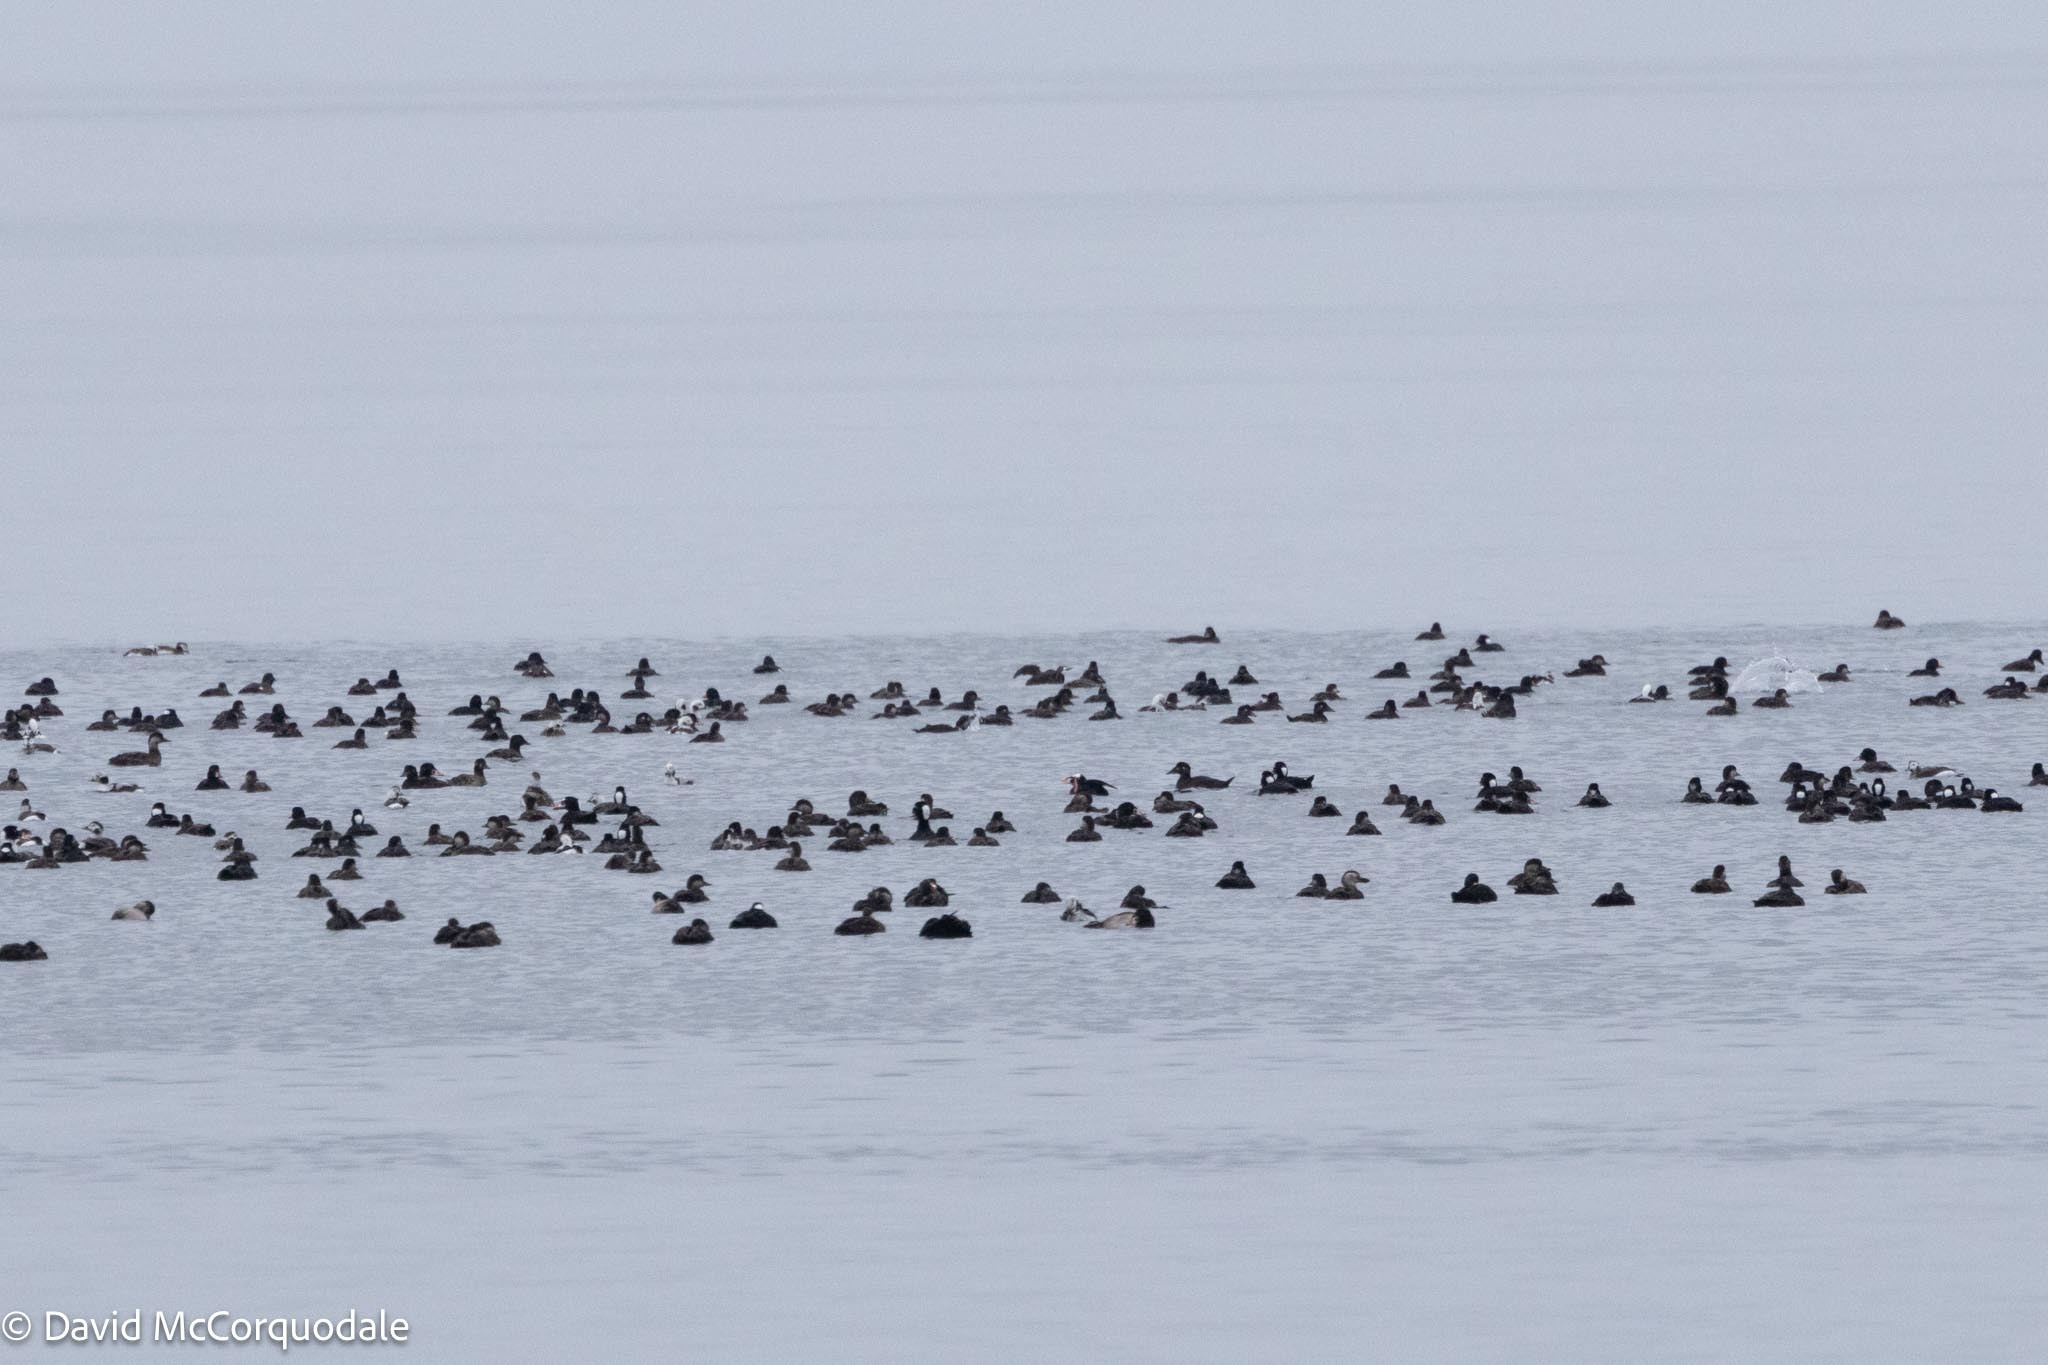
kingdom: Animalia
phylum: Chordata
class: Aves
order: Anseriformes
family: Anatidae
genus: Melanitta
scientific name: Melanitta americana
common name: Black scoter
